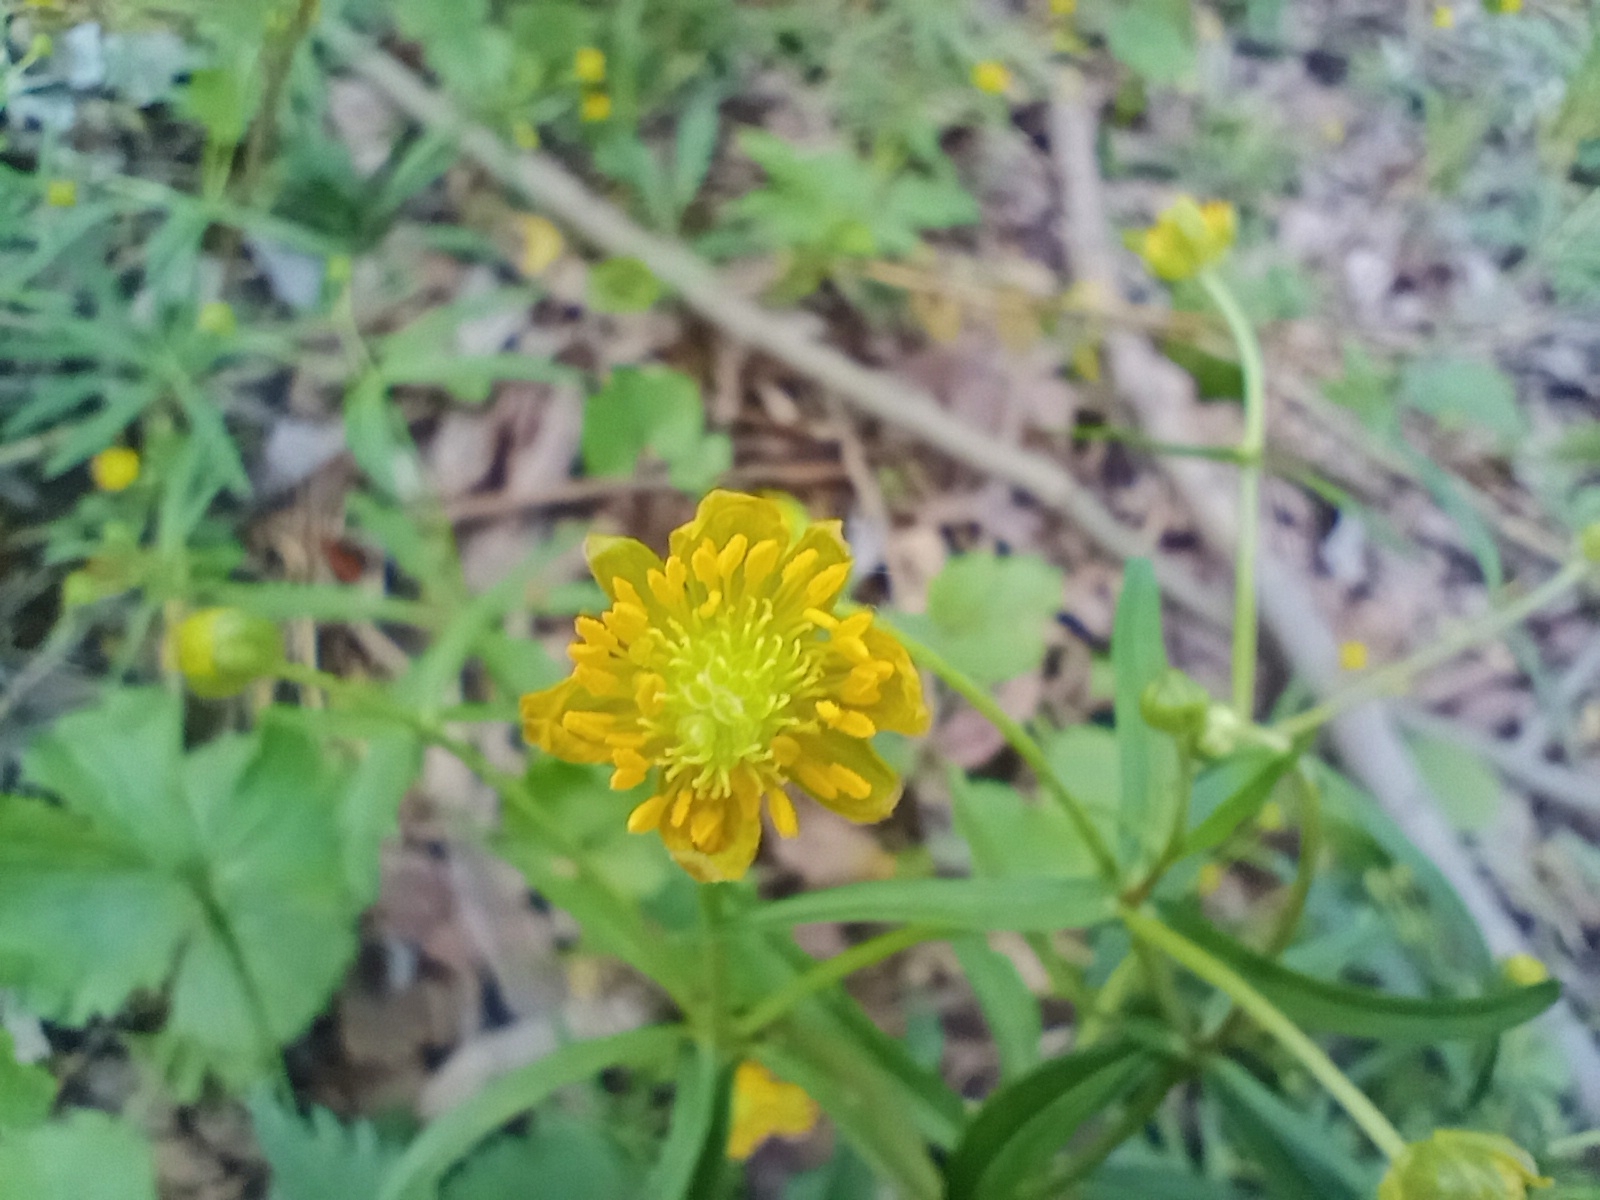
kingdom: Plantae
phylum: Tracheophyta
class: Magnoliopsida
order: Ranunculales
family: Ranunculaceae
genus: Ranunculus
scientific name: Ranunculus cassubicus
